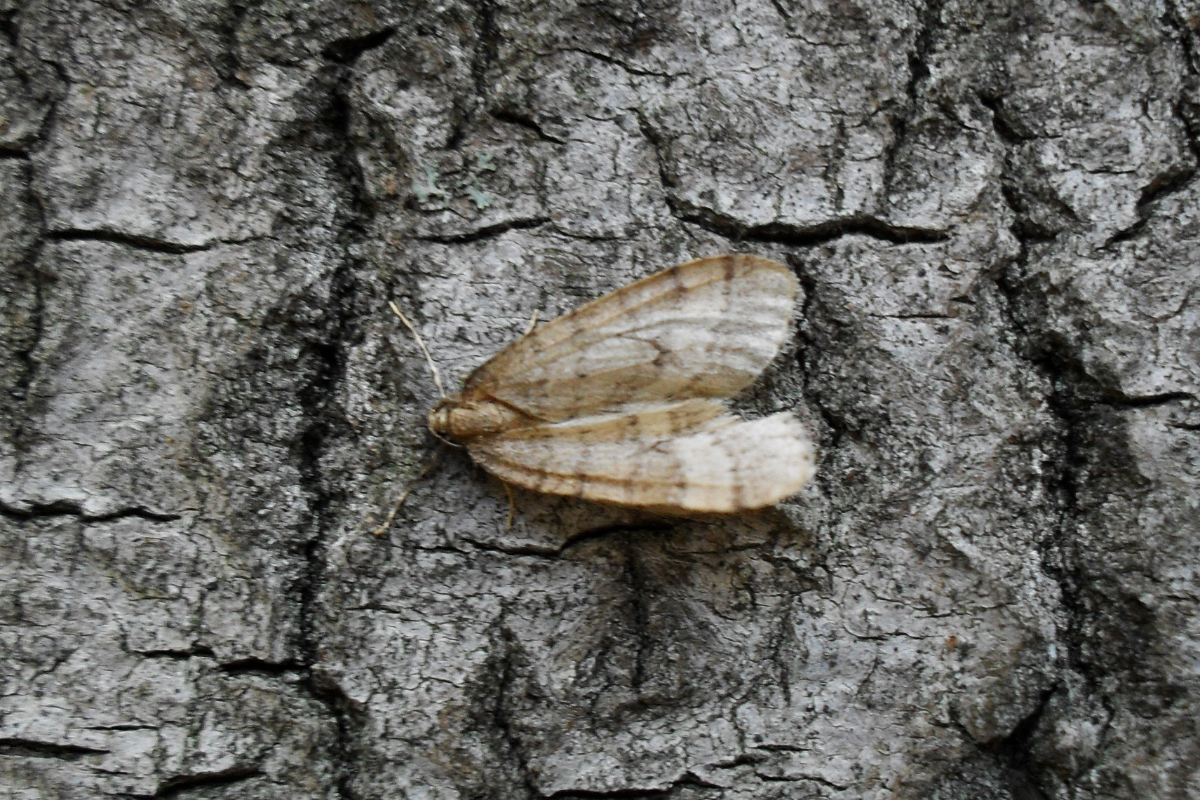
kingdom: Animalia
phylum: Arthropoda
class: Insecta
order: Lepidoptera
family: Geometridae
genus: Operophtera
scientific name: Operophtera brumata
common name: Winter moth
